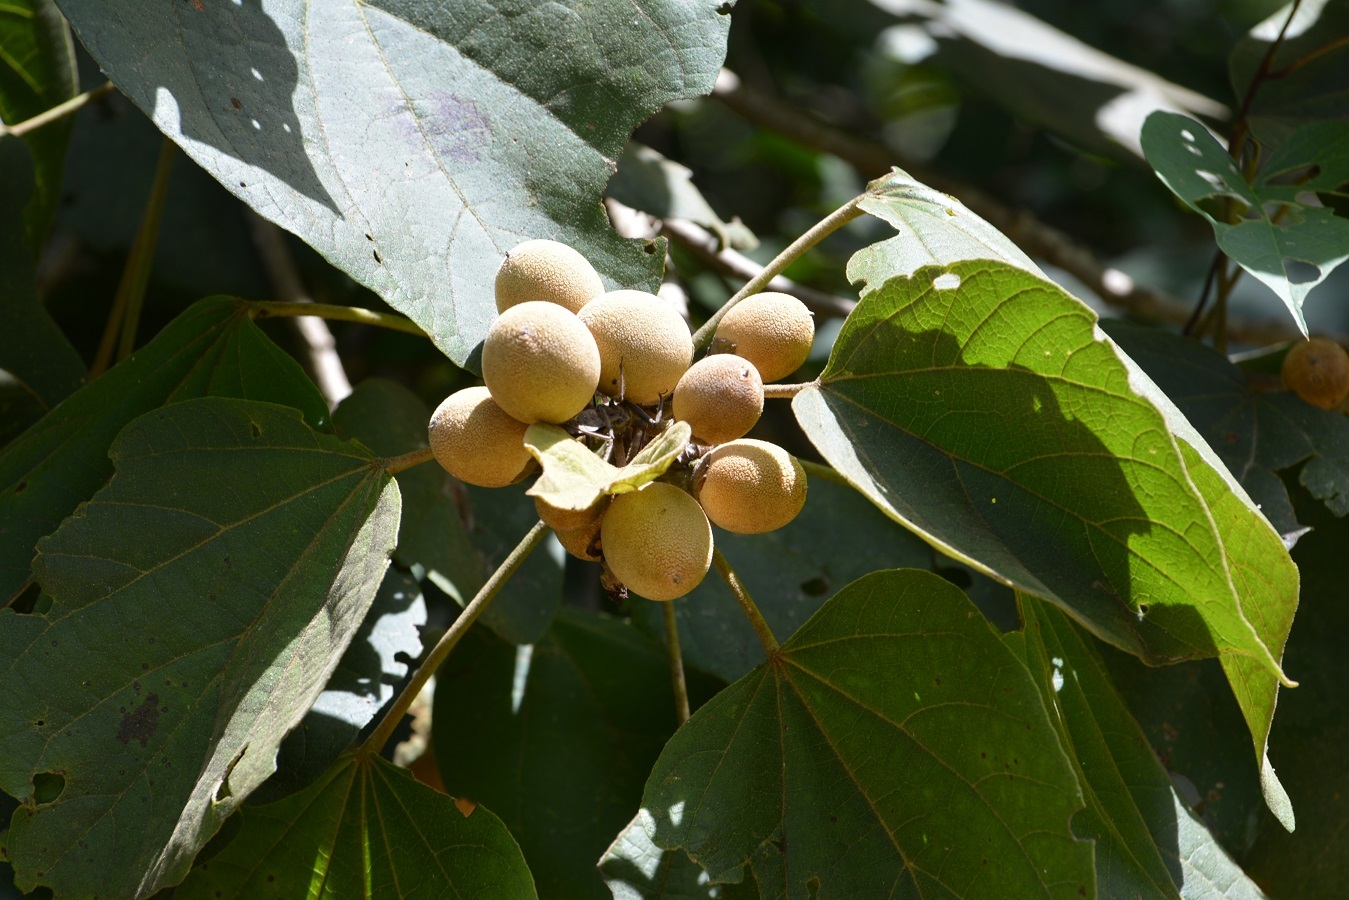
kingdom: Plantae
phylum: Tracheophyta
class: Magnoliopsida
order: Malvales
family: Malvaceae
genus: Hampea
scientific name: Hampea mexicana
